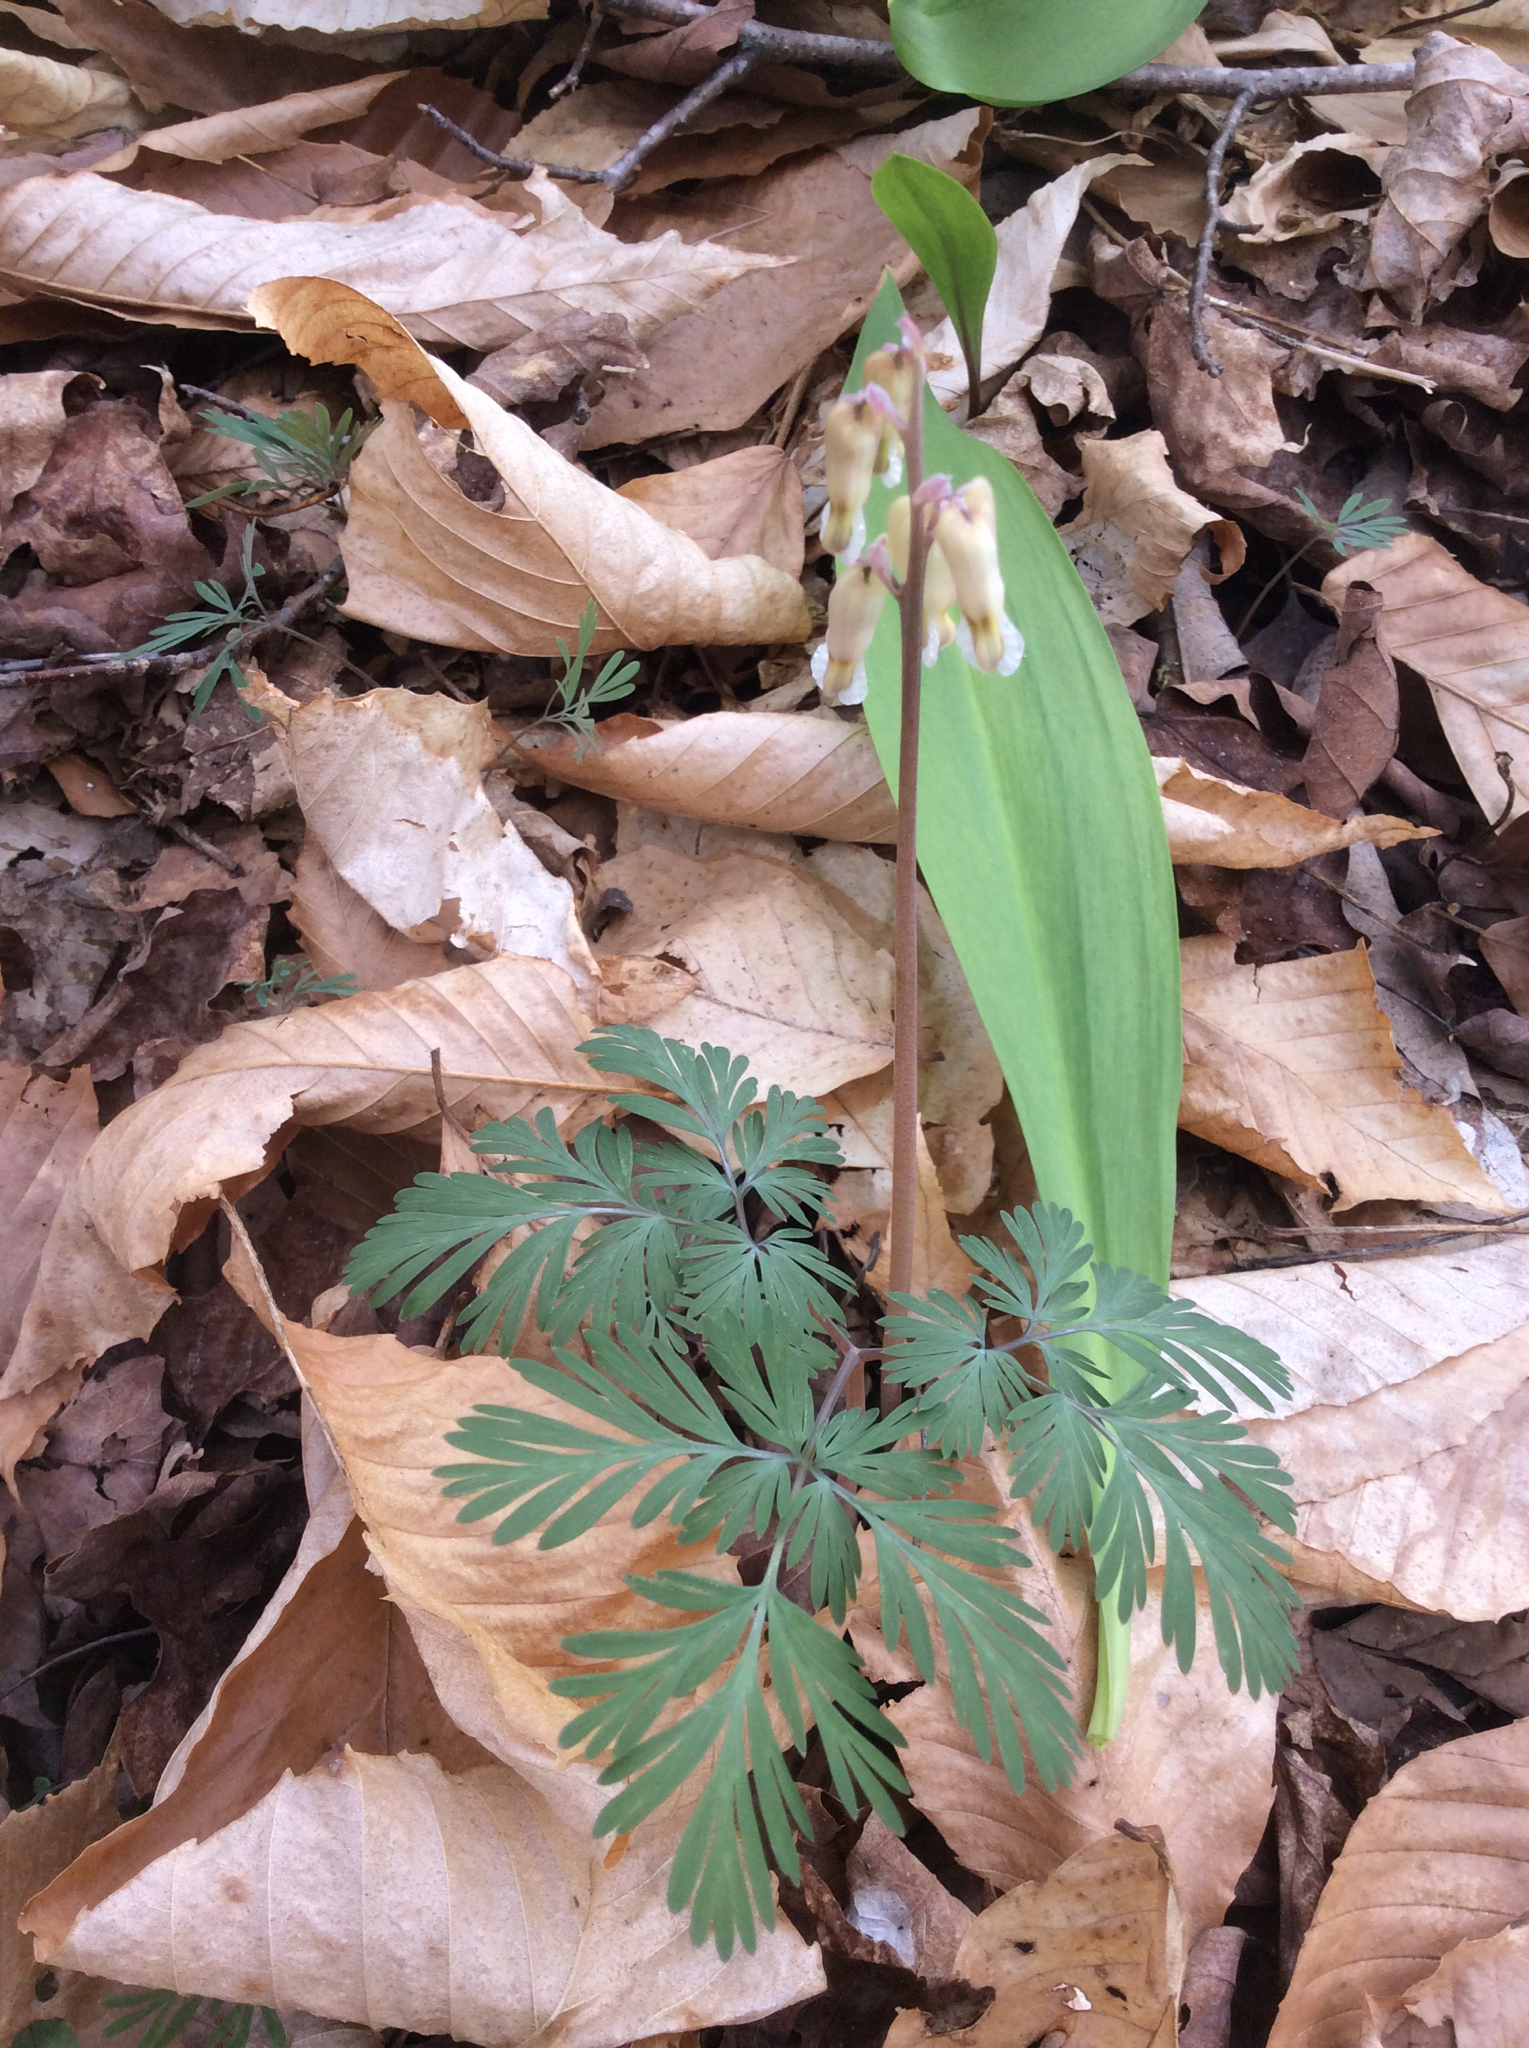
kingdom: Plantae
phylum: Tracheophyta
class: Magnoliopsida
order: Ranunculales
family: Papaveraceae
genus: Dicentra
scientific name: Dicentra canadensis
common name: Squirrel-corn
